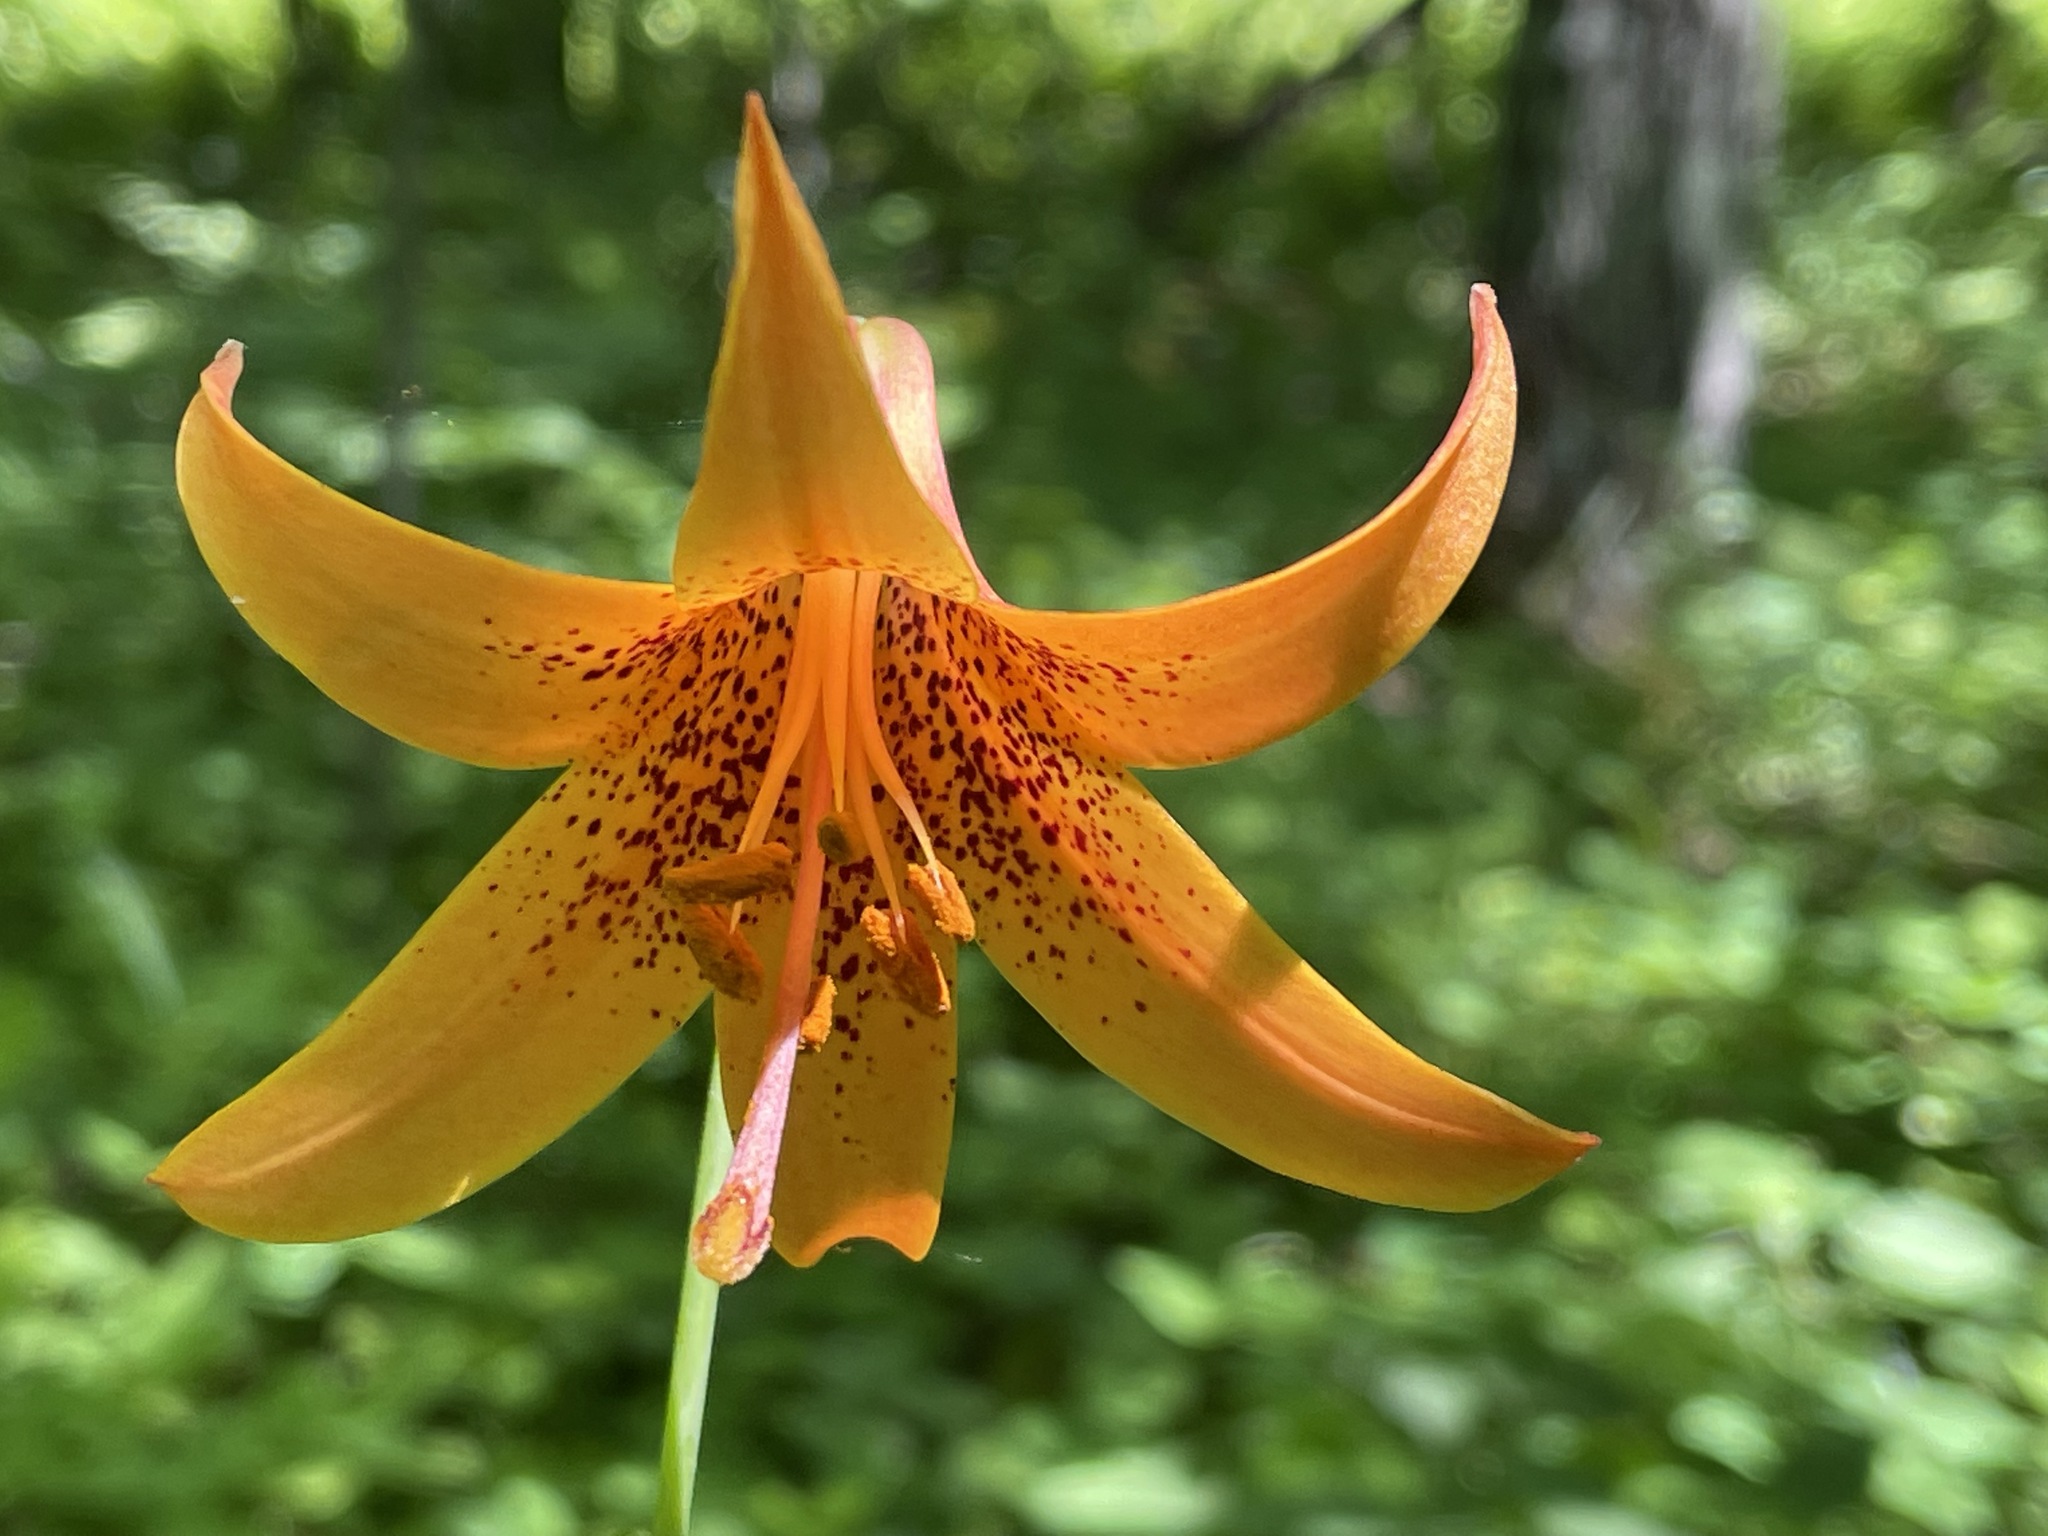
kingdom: Plantae
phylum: Tracheophyta
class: Liliopsida
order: Liliales
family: Liliaceae
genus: Lilium
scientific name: Lilium canadense
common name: Canada lily
